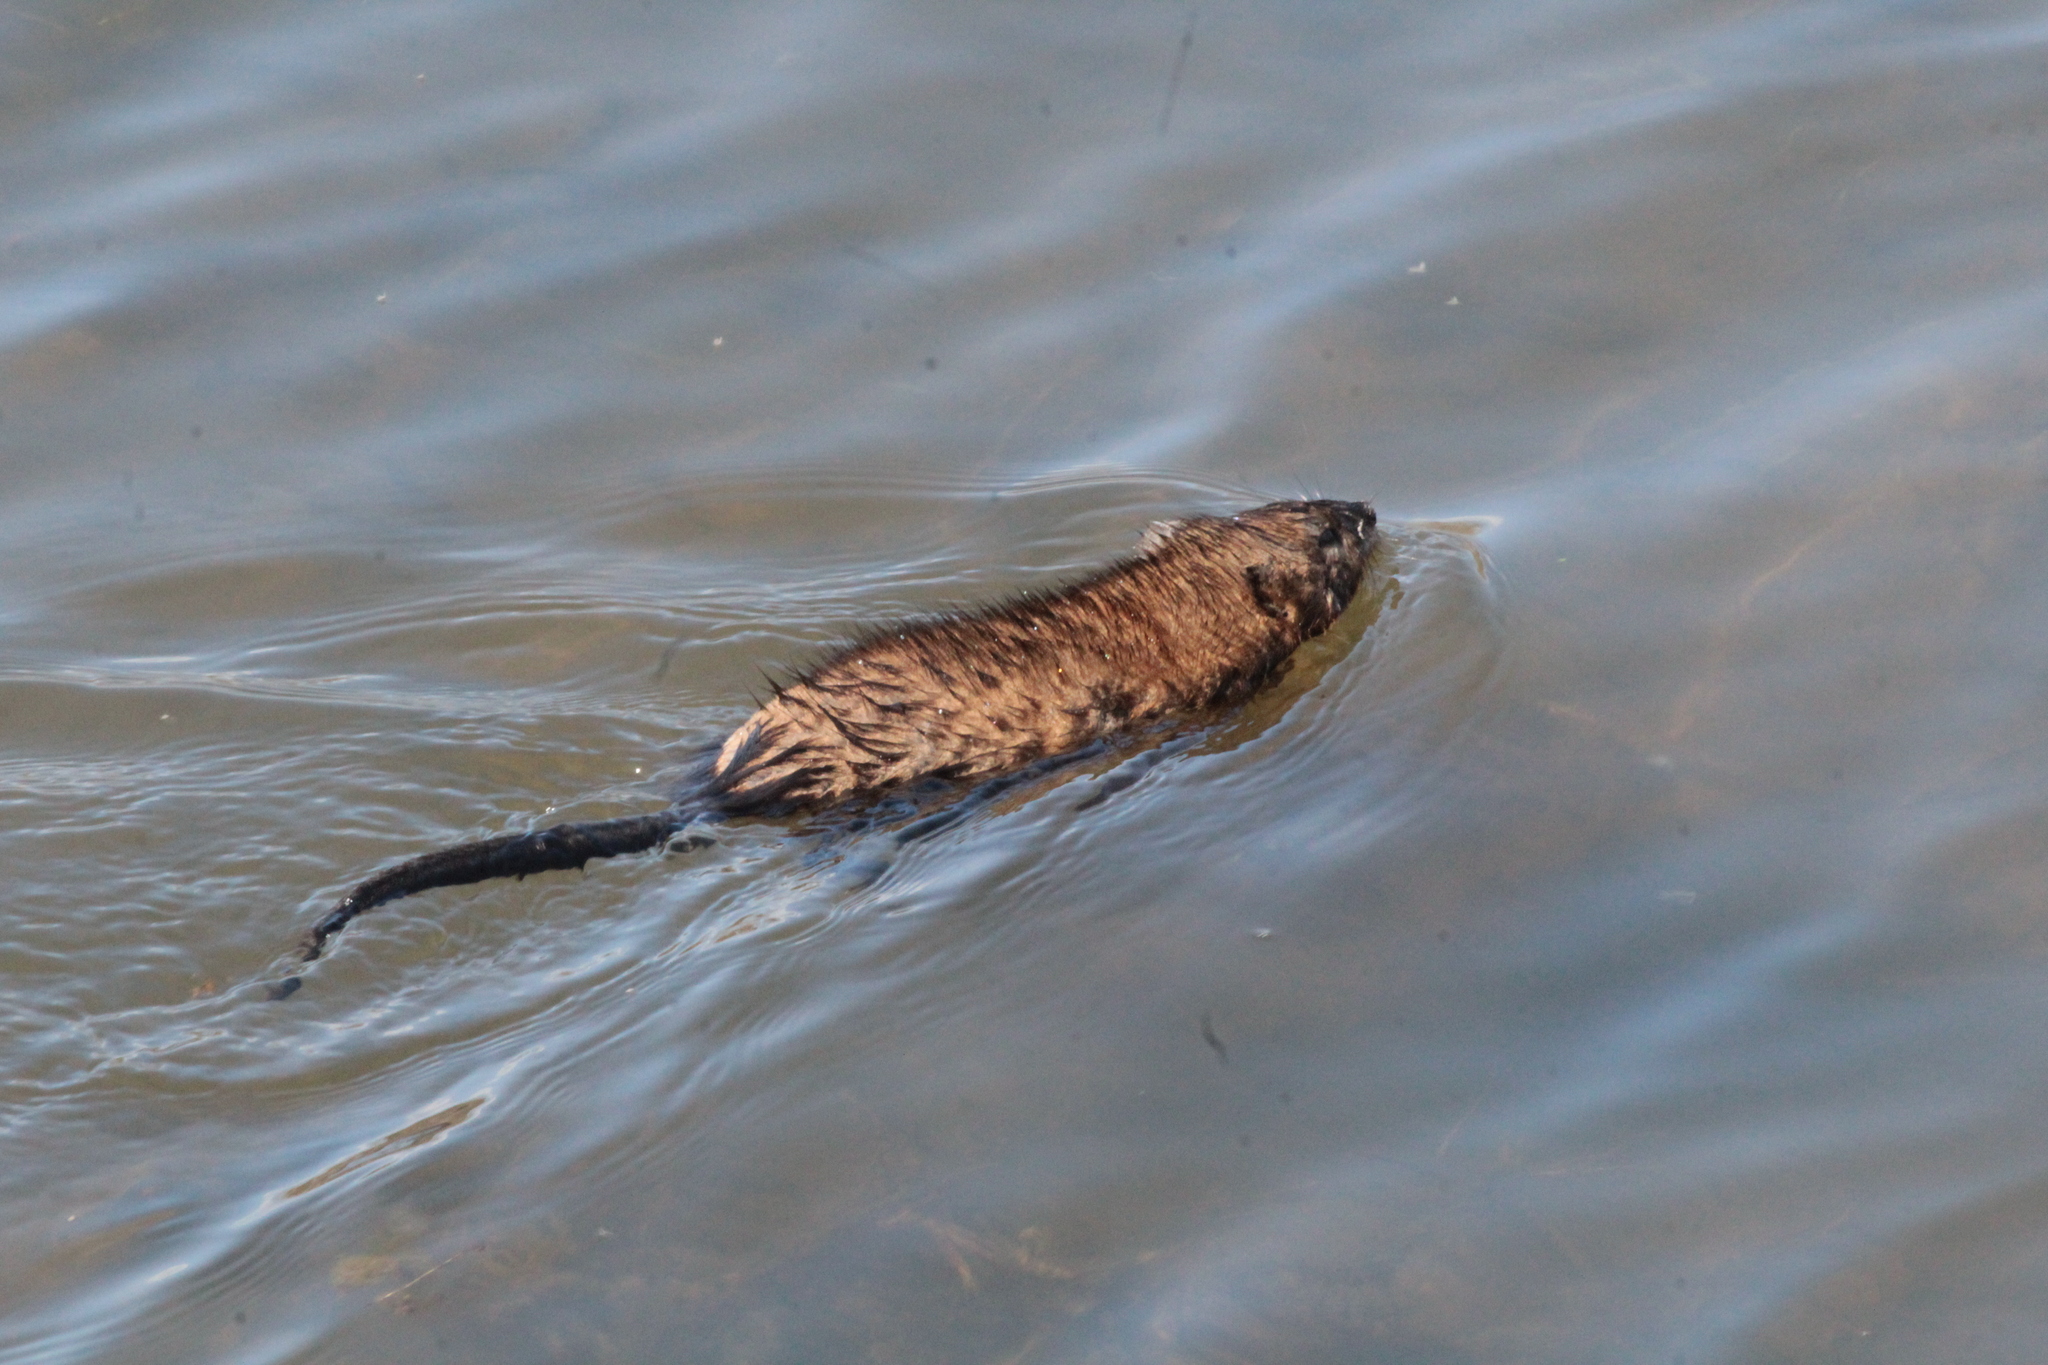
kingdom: Animalia
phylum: Chordata
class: Mammalia
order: Rodentia
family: Cricetidae
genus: Ondatra
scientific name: Ondatra zibethicus
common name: Muskrat
